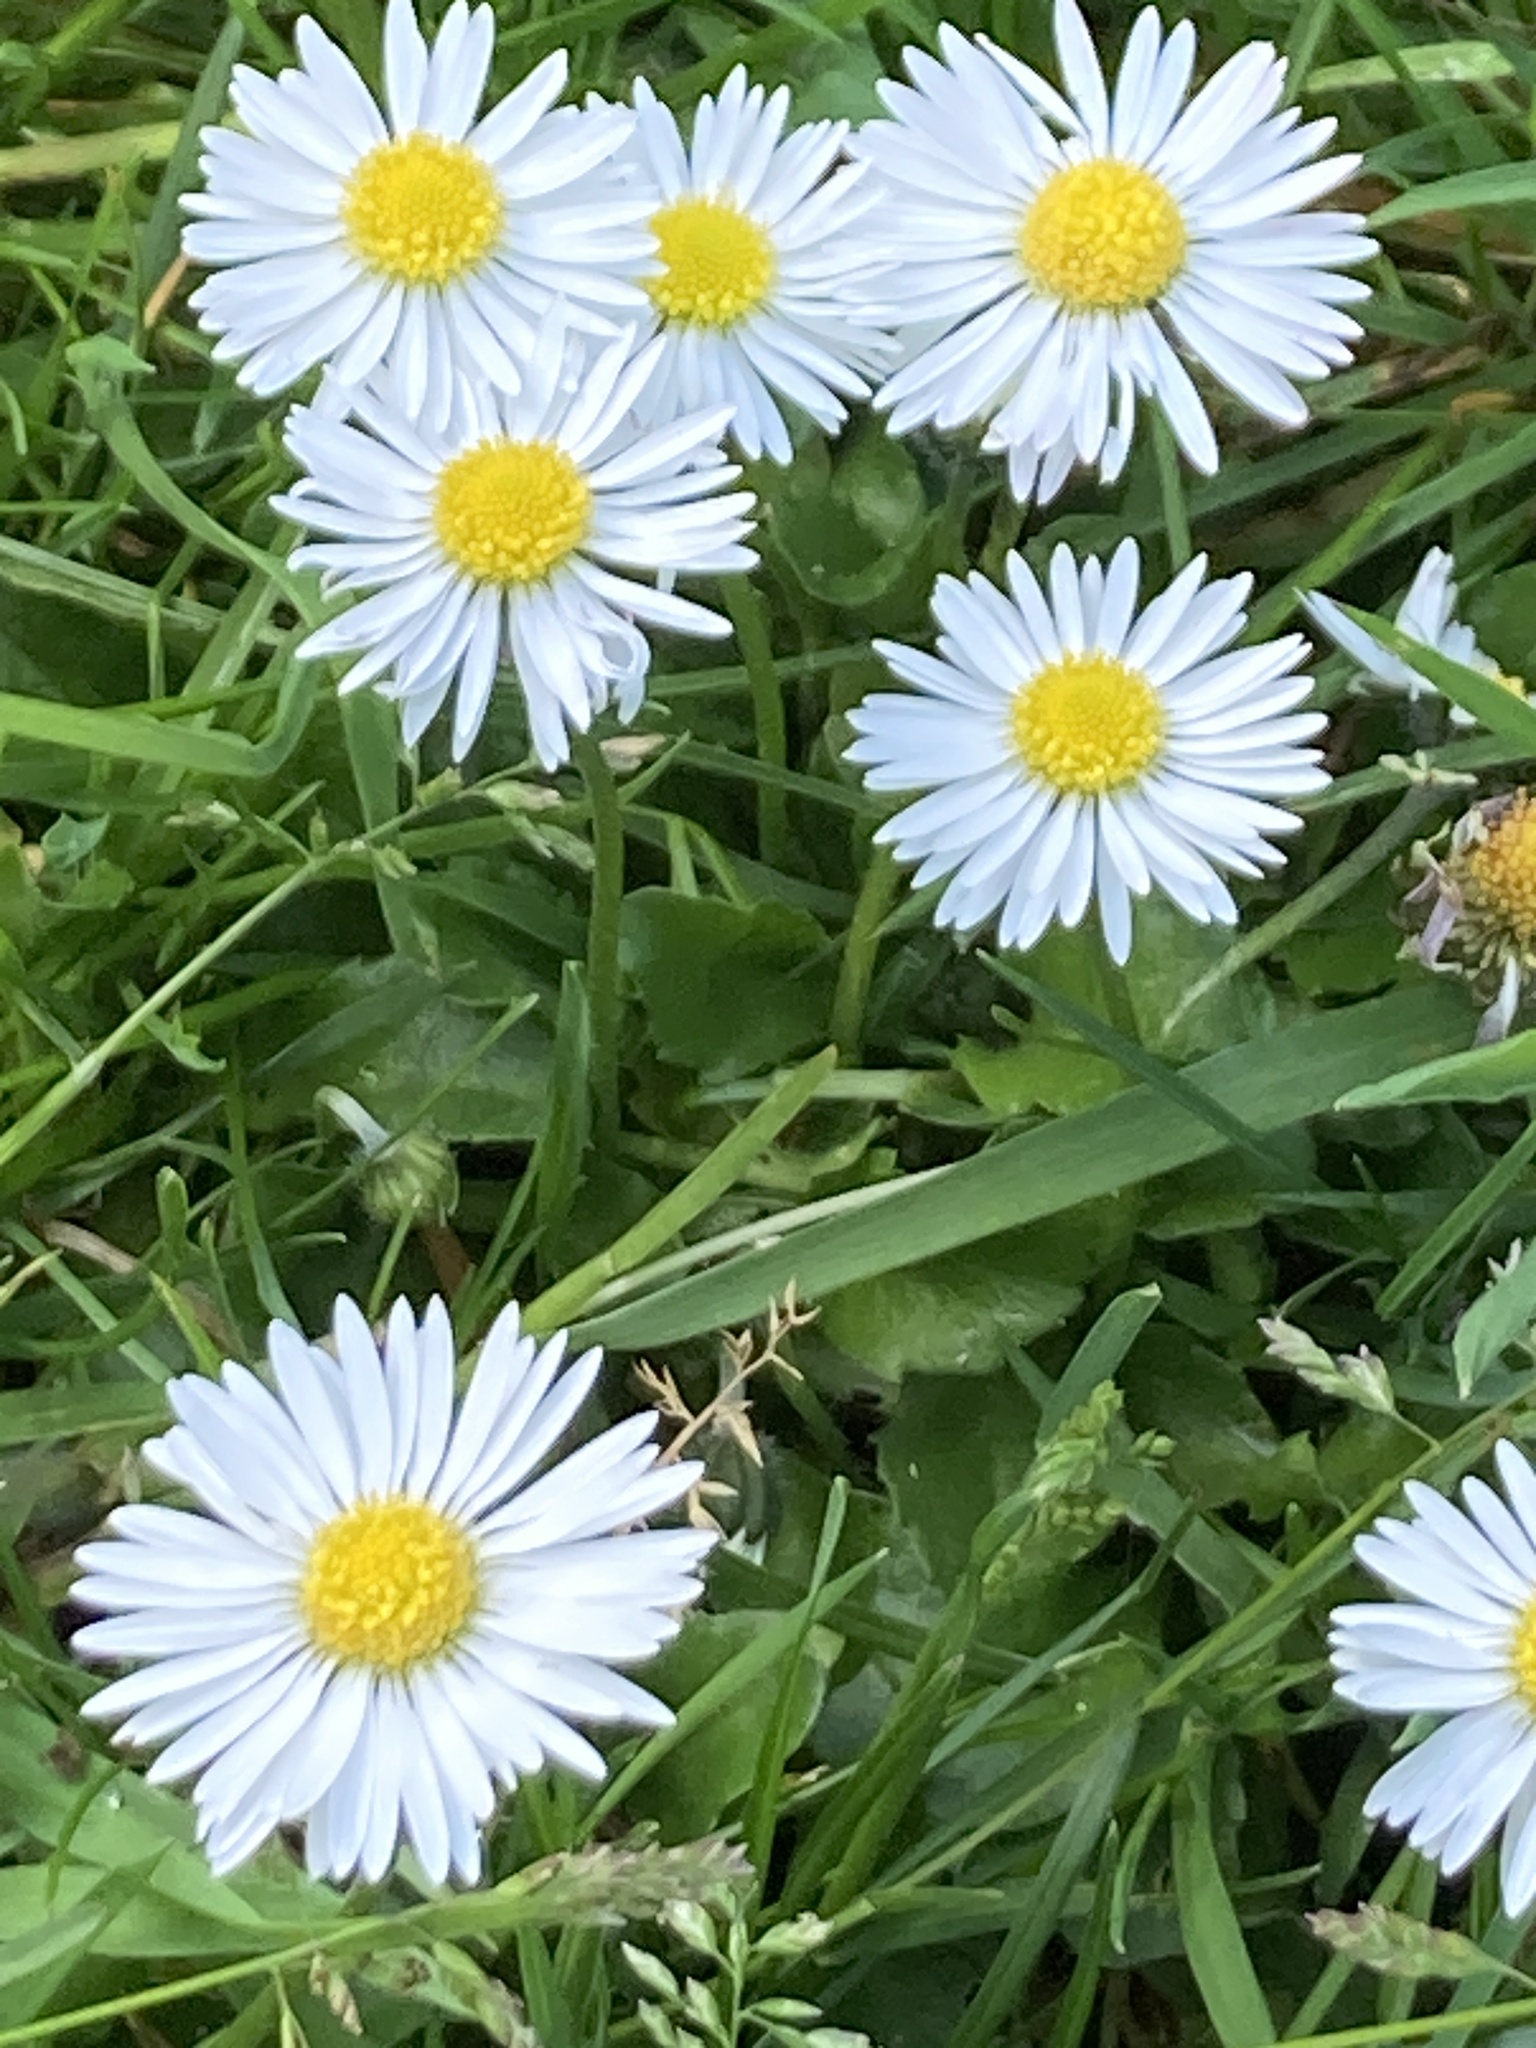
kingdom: Plantae
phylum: Tracheophyta
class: Magnoliopsida
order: Asterales
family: Asteraceae
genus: Bellis
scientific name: Bellis perennis
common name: Lawndaisy
